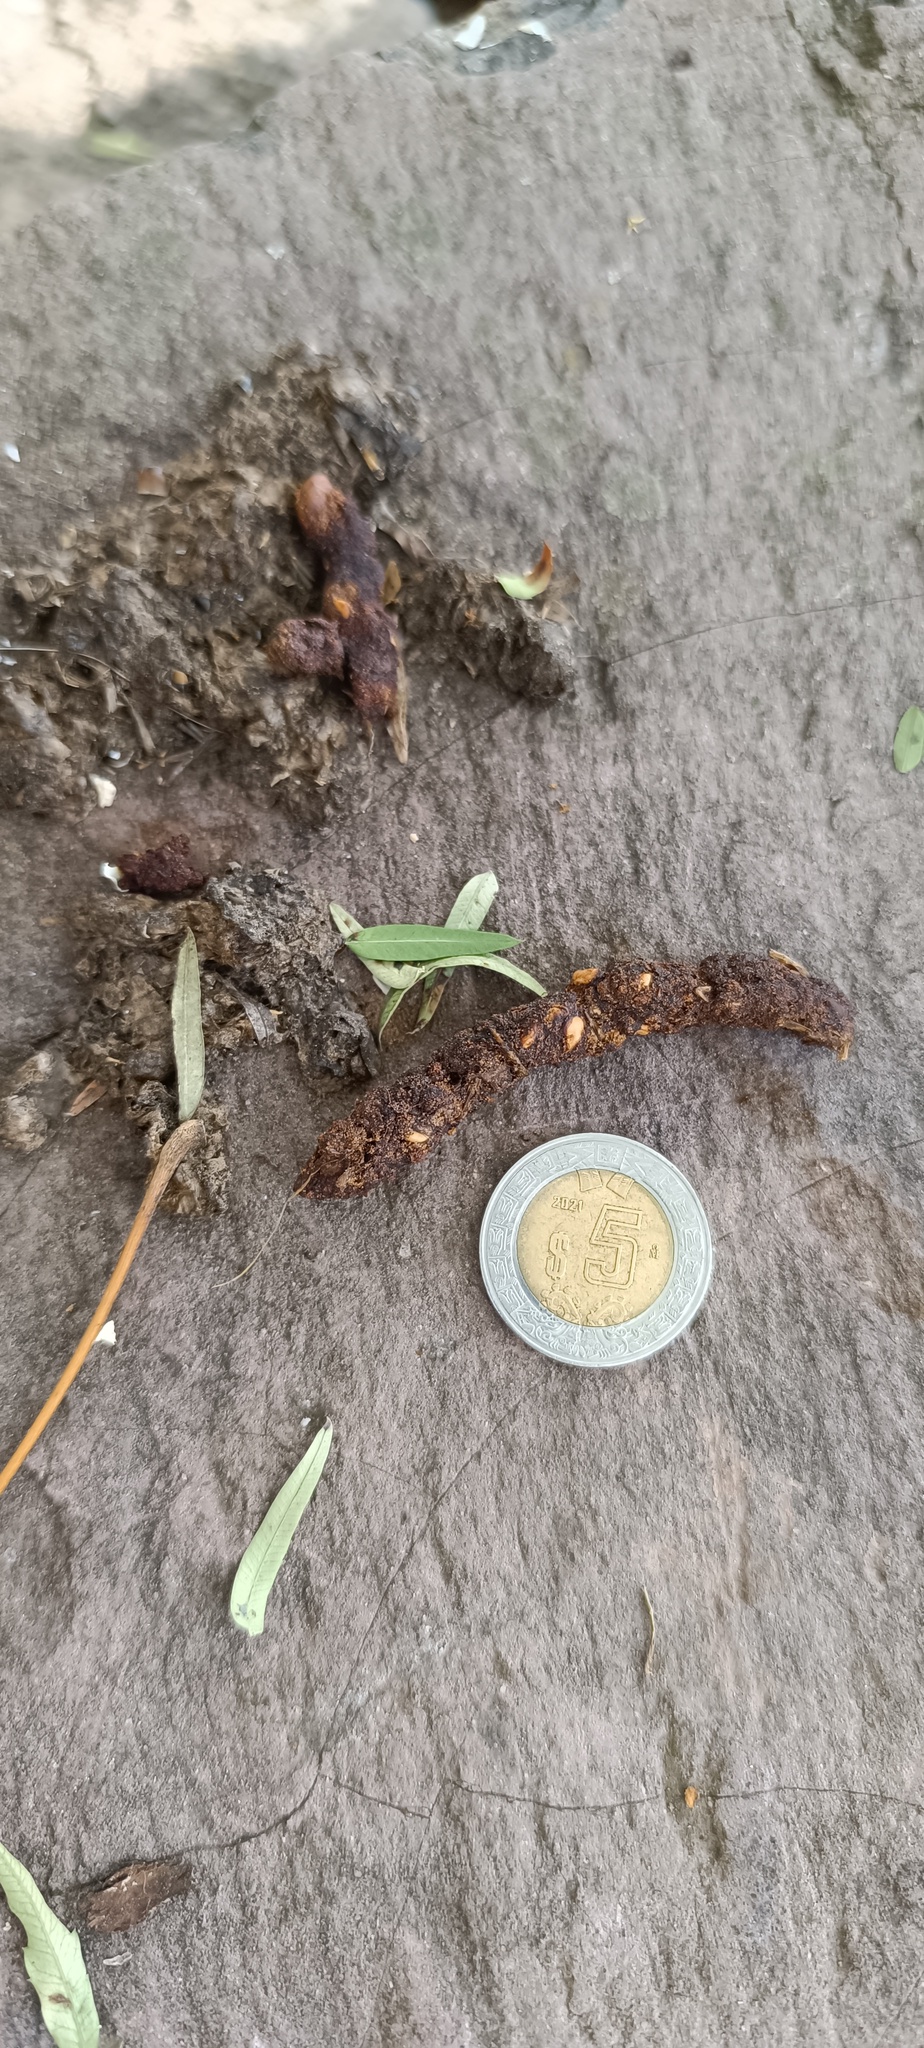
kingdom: Animalia
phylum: Chordata
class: Mammalia
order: Carnivora
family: Procyonidae
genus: Bassariscus
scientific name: Bassariscus astutus
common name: Ringtail
